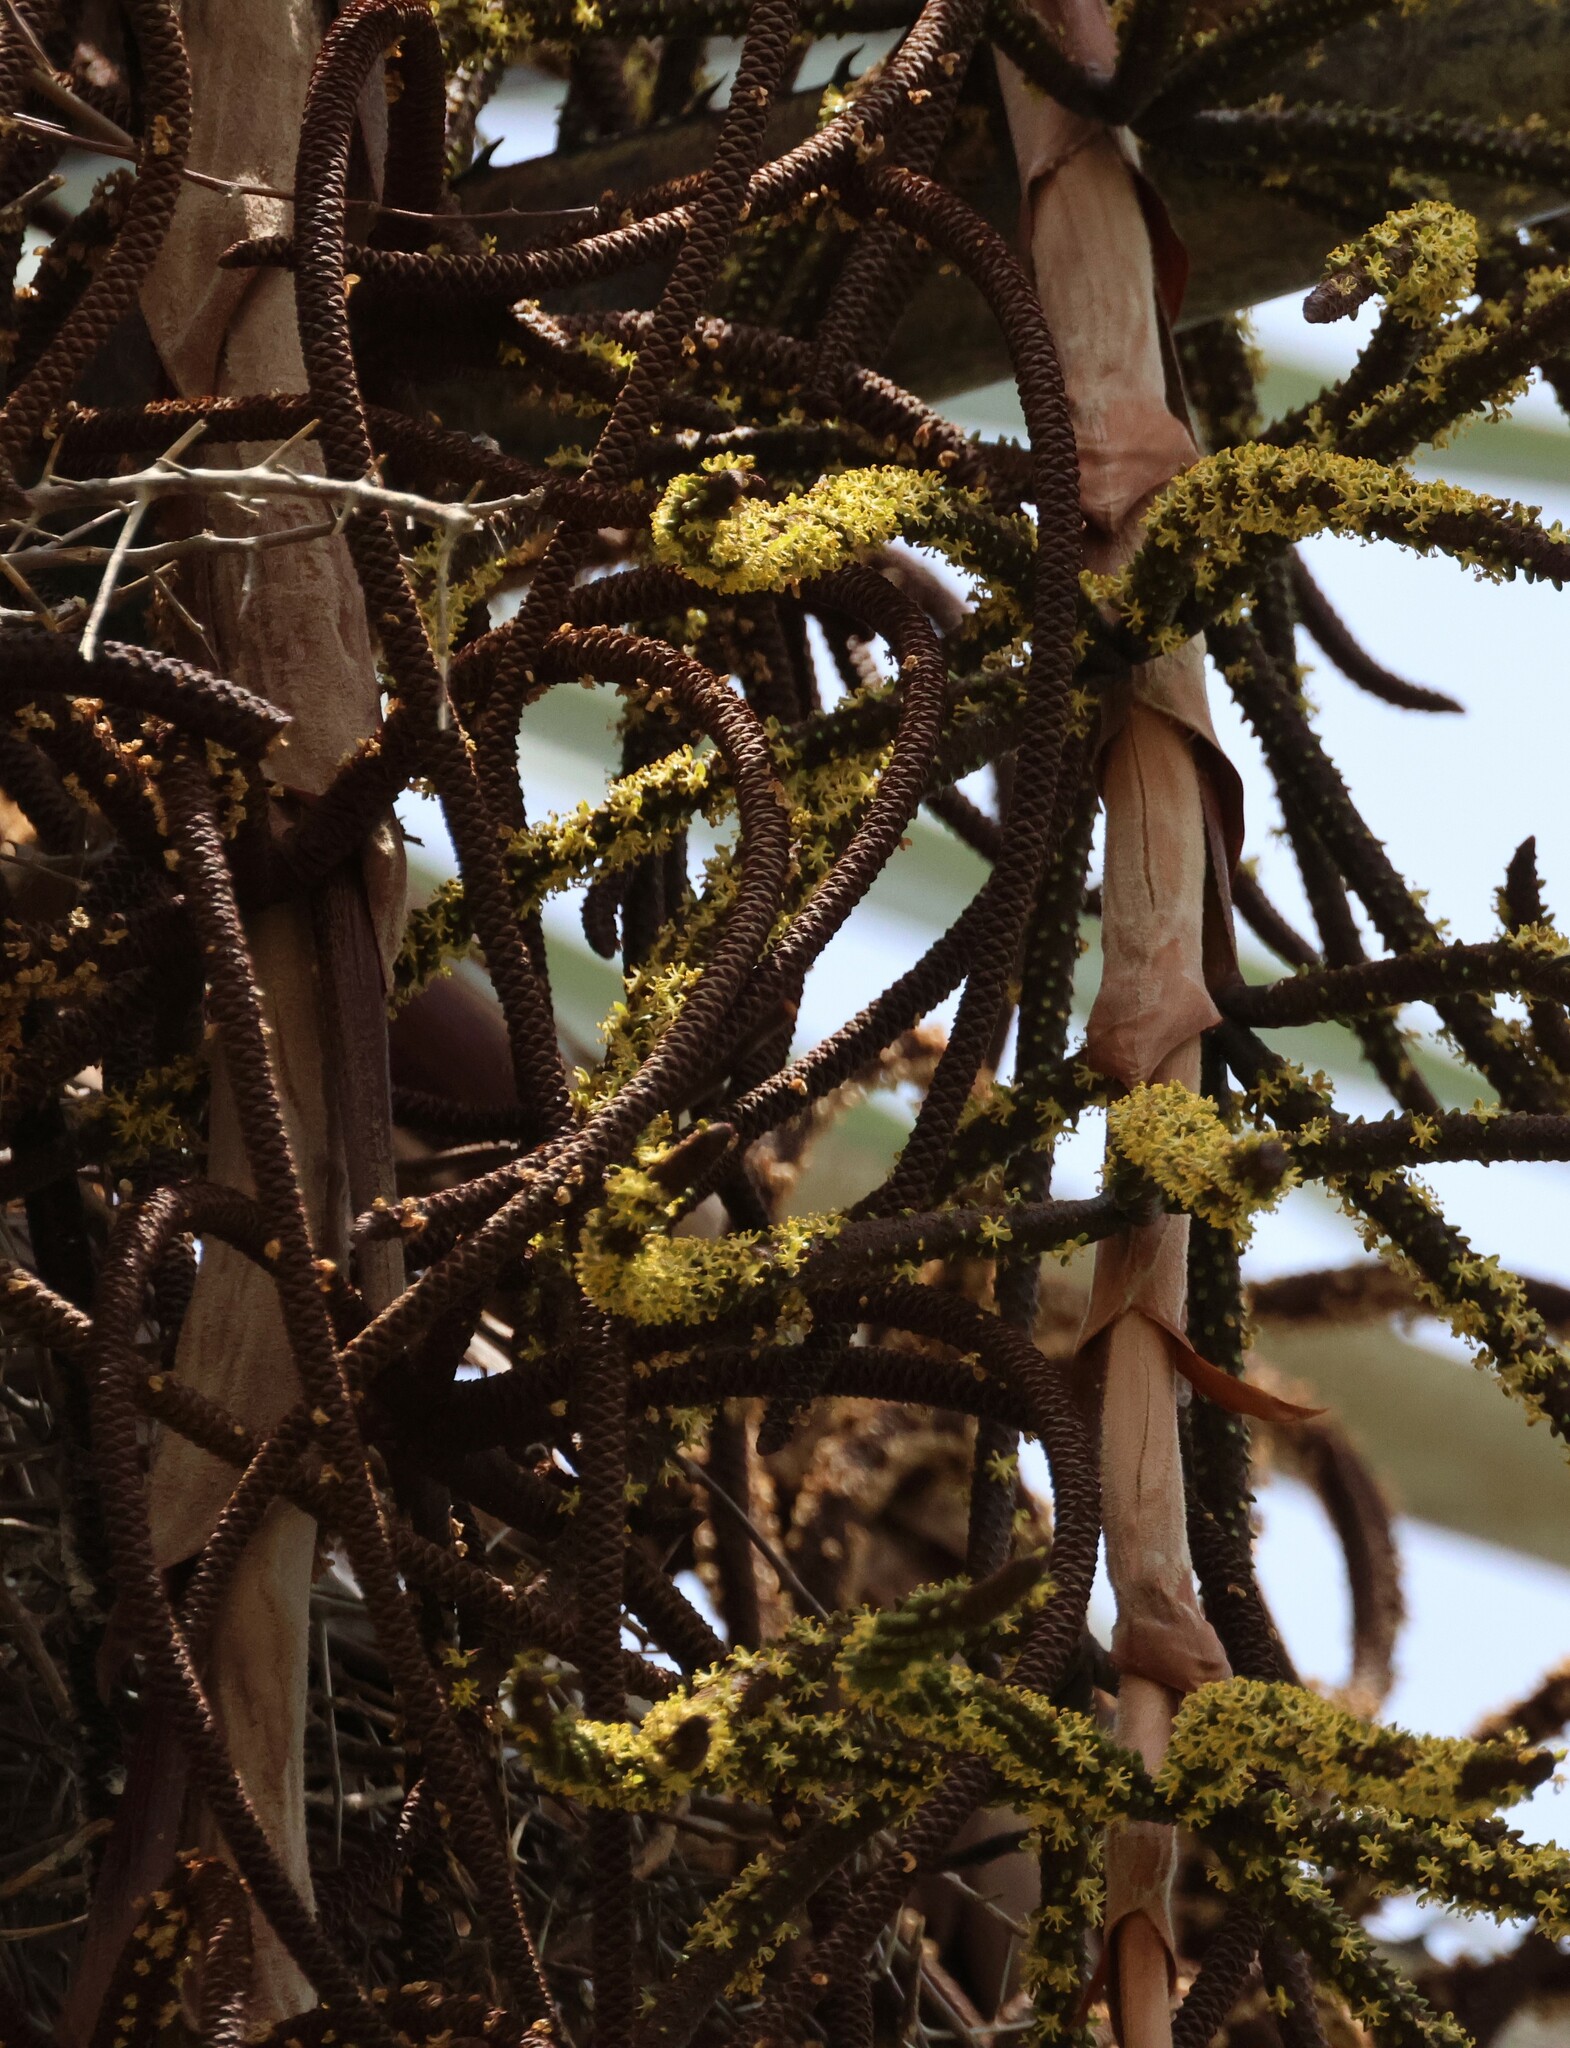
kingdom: Plantae
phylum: Tracheophyta
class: Liliopsida
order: Arecales
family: Arecaceae
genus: Hyphaene
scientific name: Hyphaene petersiana
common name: African ivory nut palm
